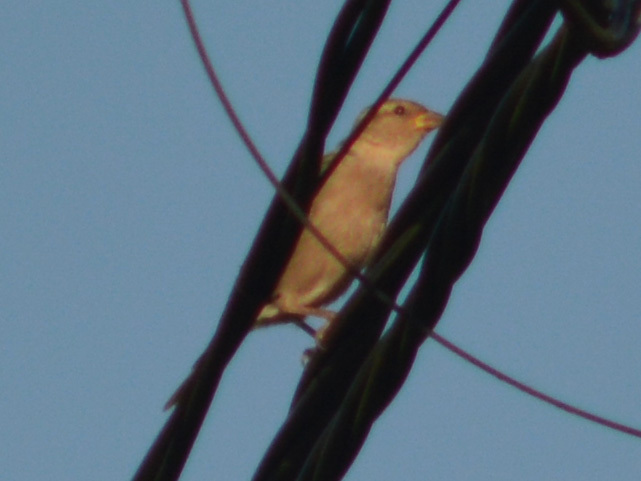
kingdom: Animalia
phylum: Chordata
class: Aves
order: Passeriformes
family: Passeridae
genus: Passer
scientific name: Passer domesticus
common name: House sparrow
